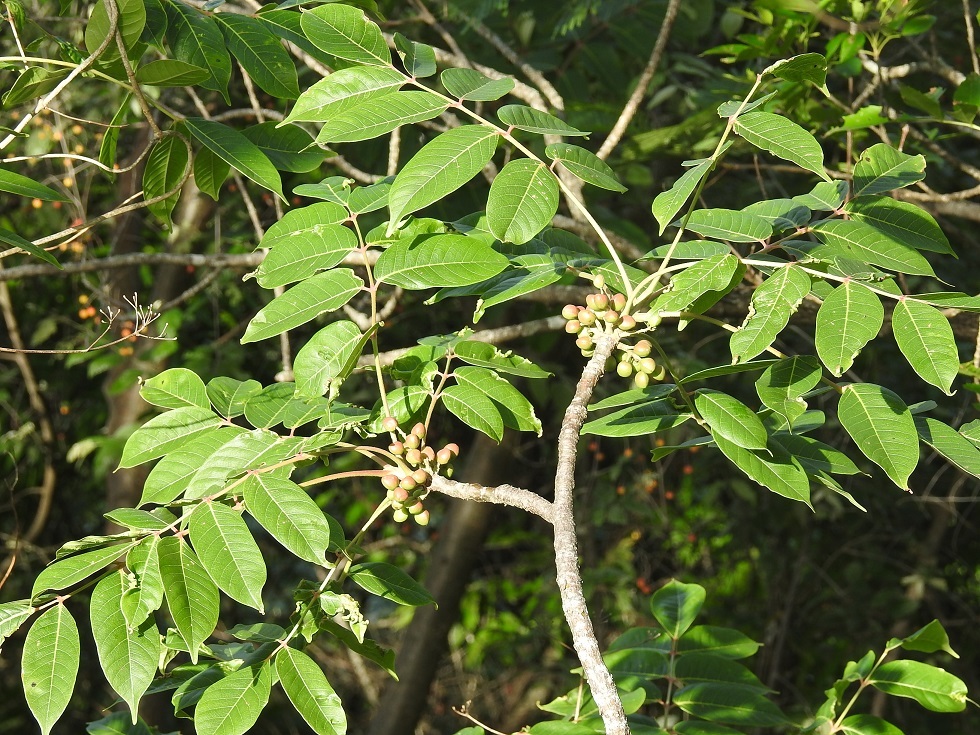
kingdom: Plantae
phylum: Tracheophyta
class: Magnoliopsida
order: Sapindales
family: Burseraceae
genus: Bursera
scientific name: Bursera simaruba
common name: Turpentine tree
